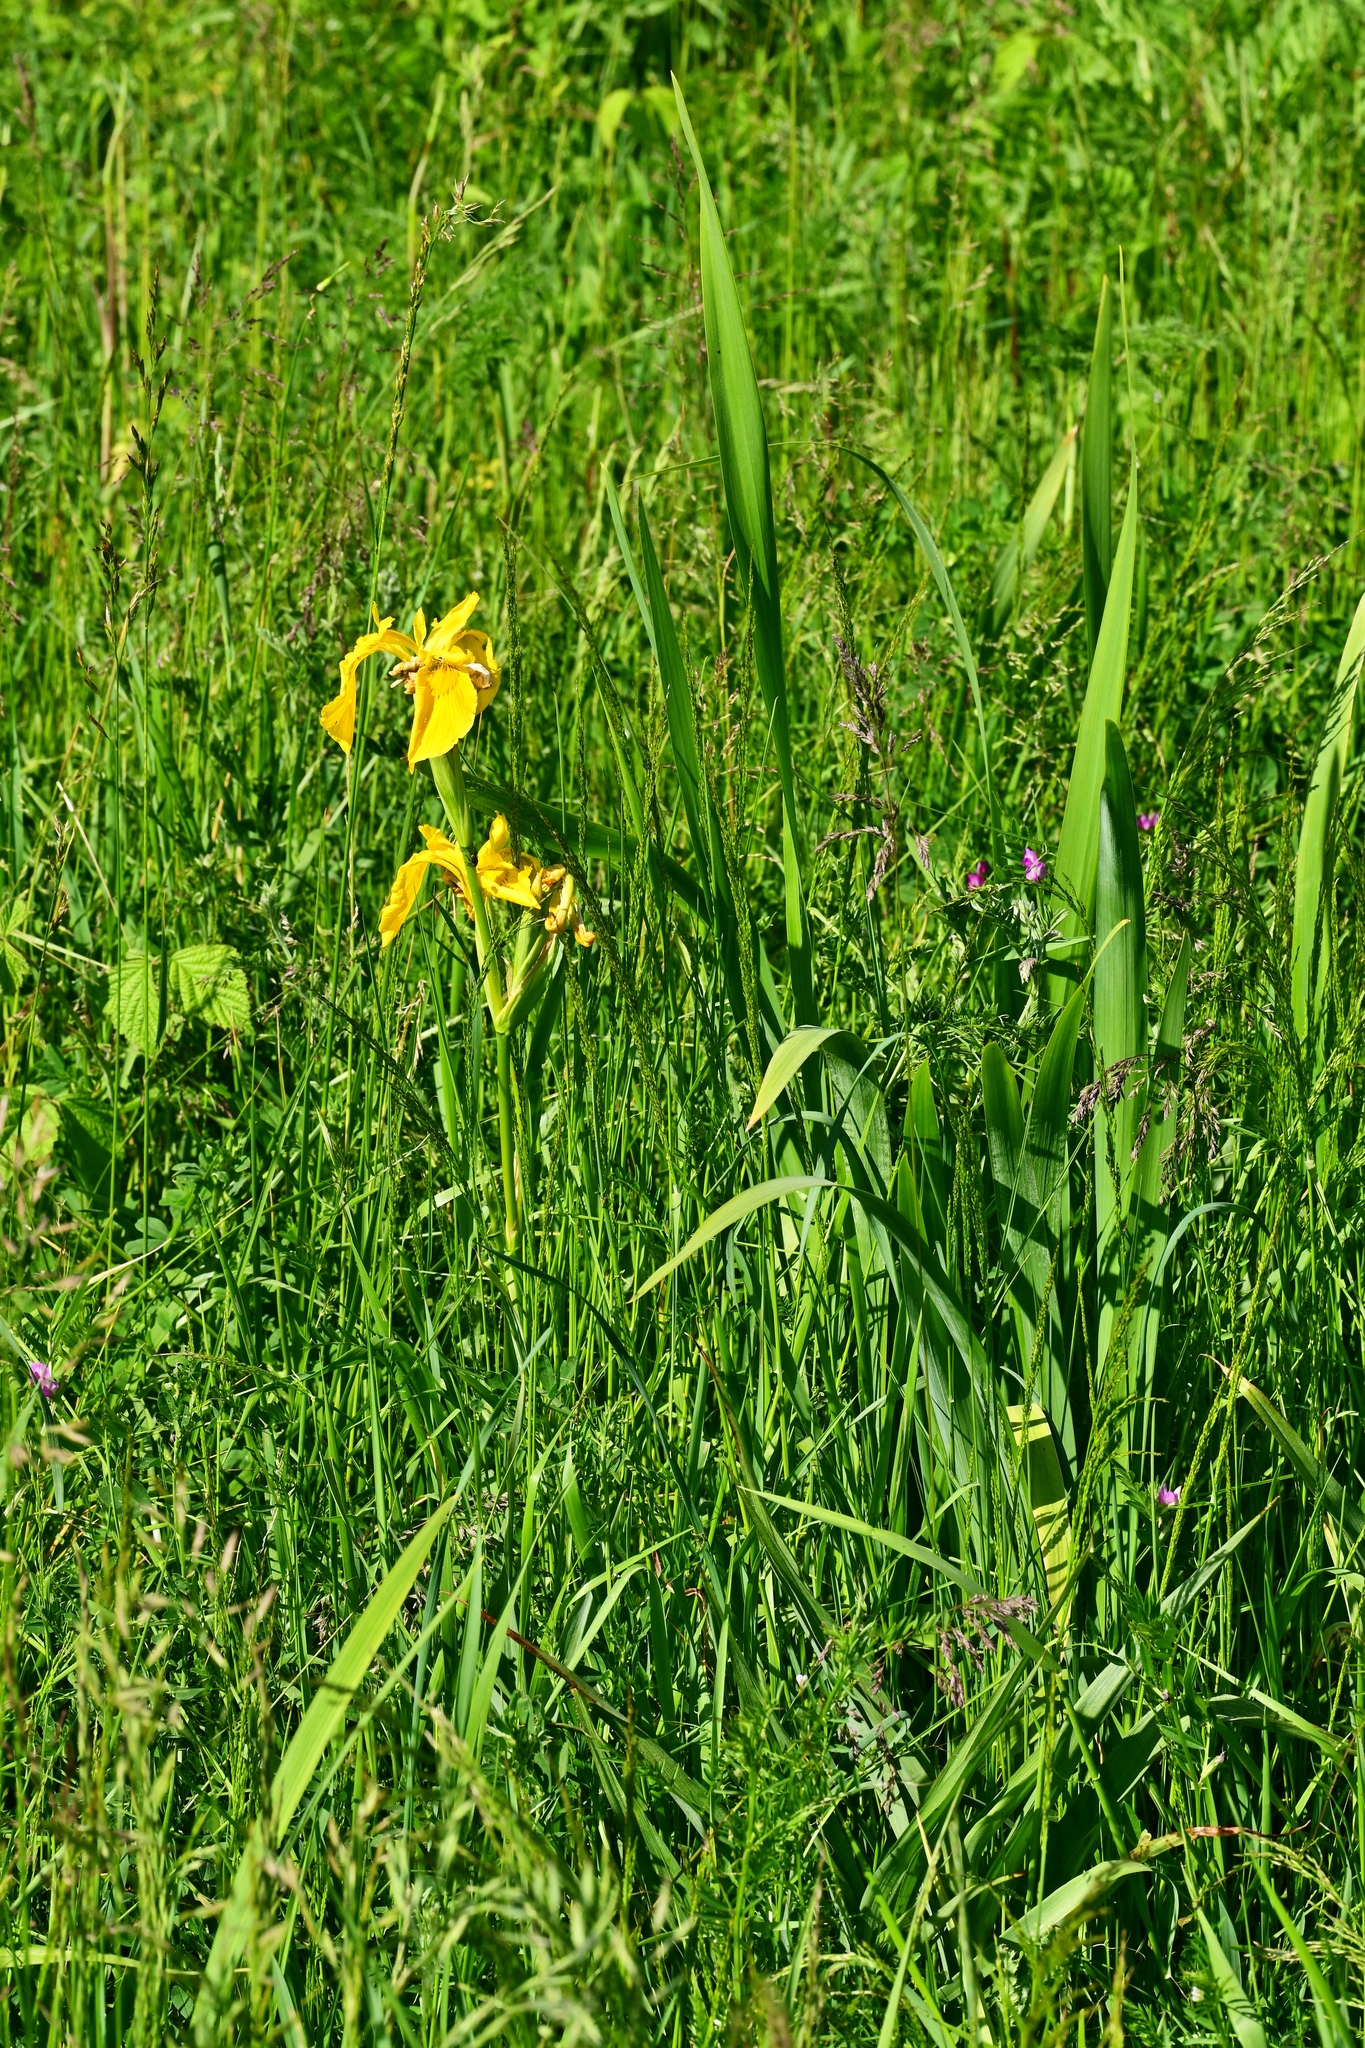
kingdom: Plantae
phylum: Tracheophyta
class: Liliopsida
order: Asparagales
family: Iridaceae
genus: Iris
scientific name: Iris pseudacorus
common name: Yellow flag
